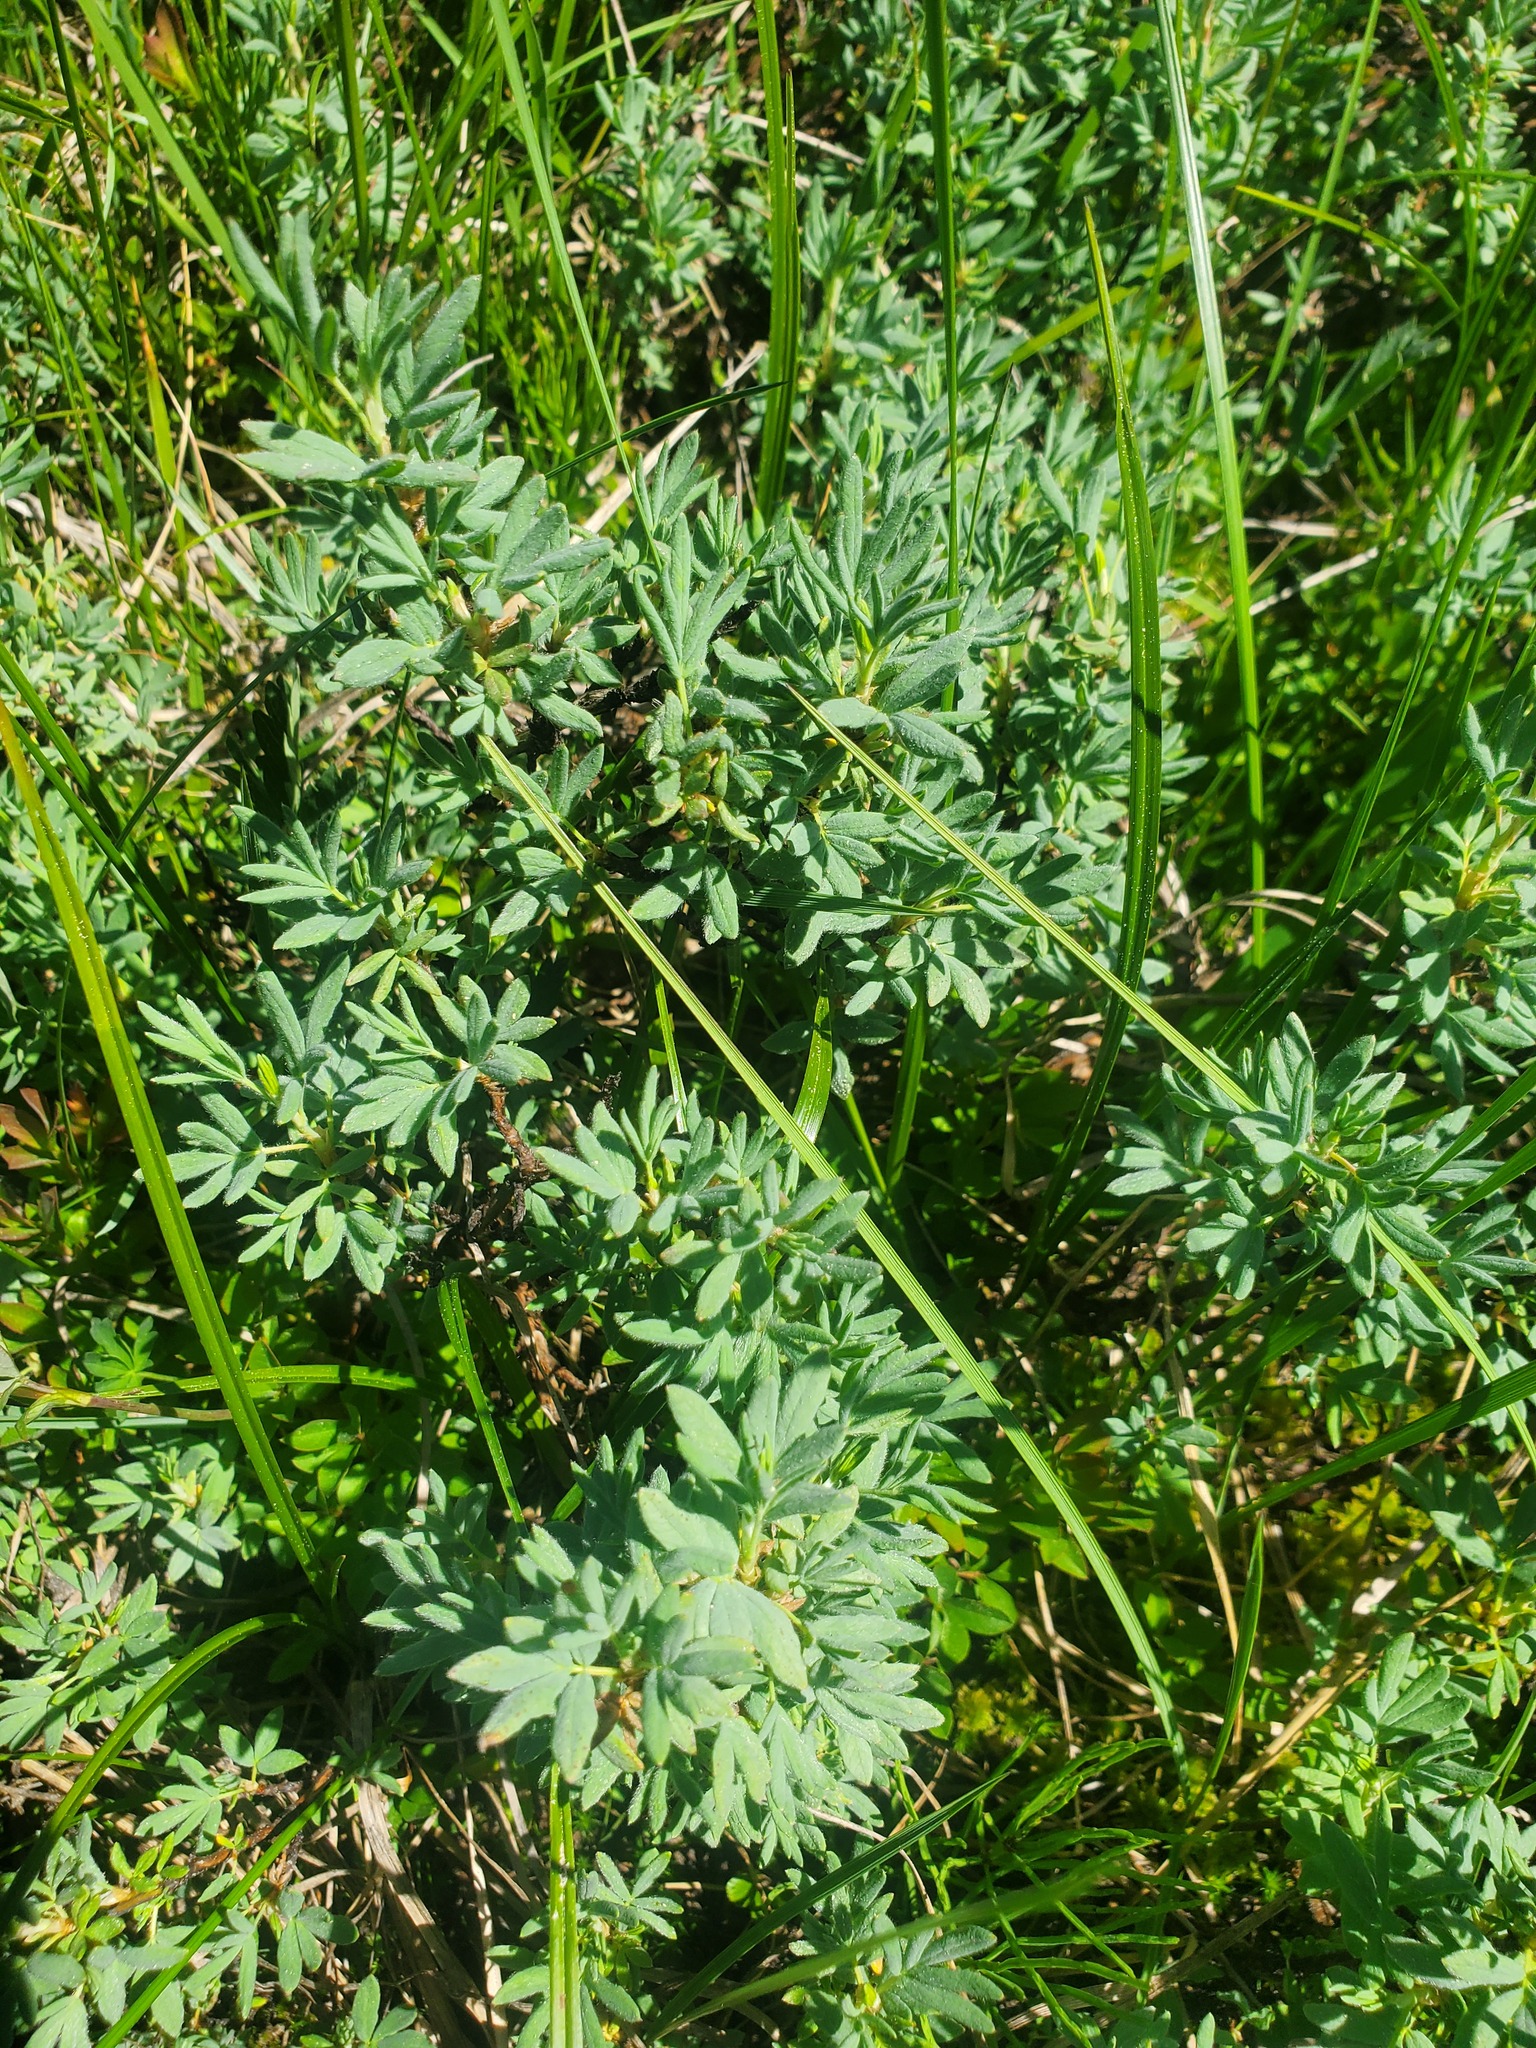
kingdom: Plantae
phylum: Tracheophyta
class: Magnoliopsida
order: Rosales
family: Rosaceae
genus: Dasiphora
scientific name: Dasiphora fruticosa
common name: Shrubby cinquefoil
